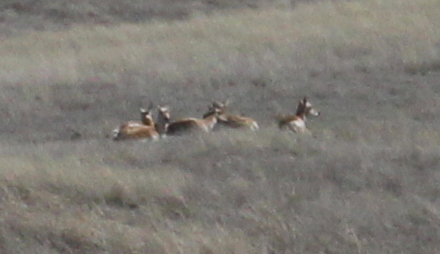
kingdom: Animalia
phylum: Chordata
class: Mammalia
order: Artiodactyla
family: Antilocapridae
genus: Antilocapra
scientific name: Antilocapra americana
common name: Pronghorn
